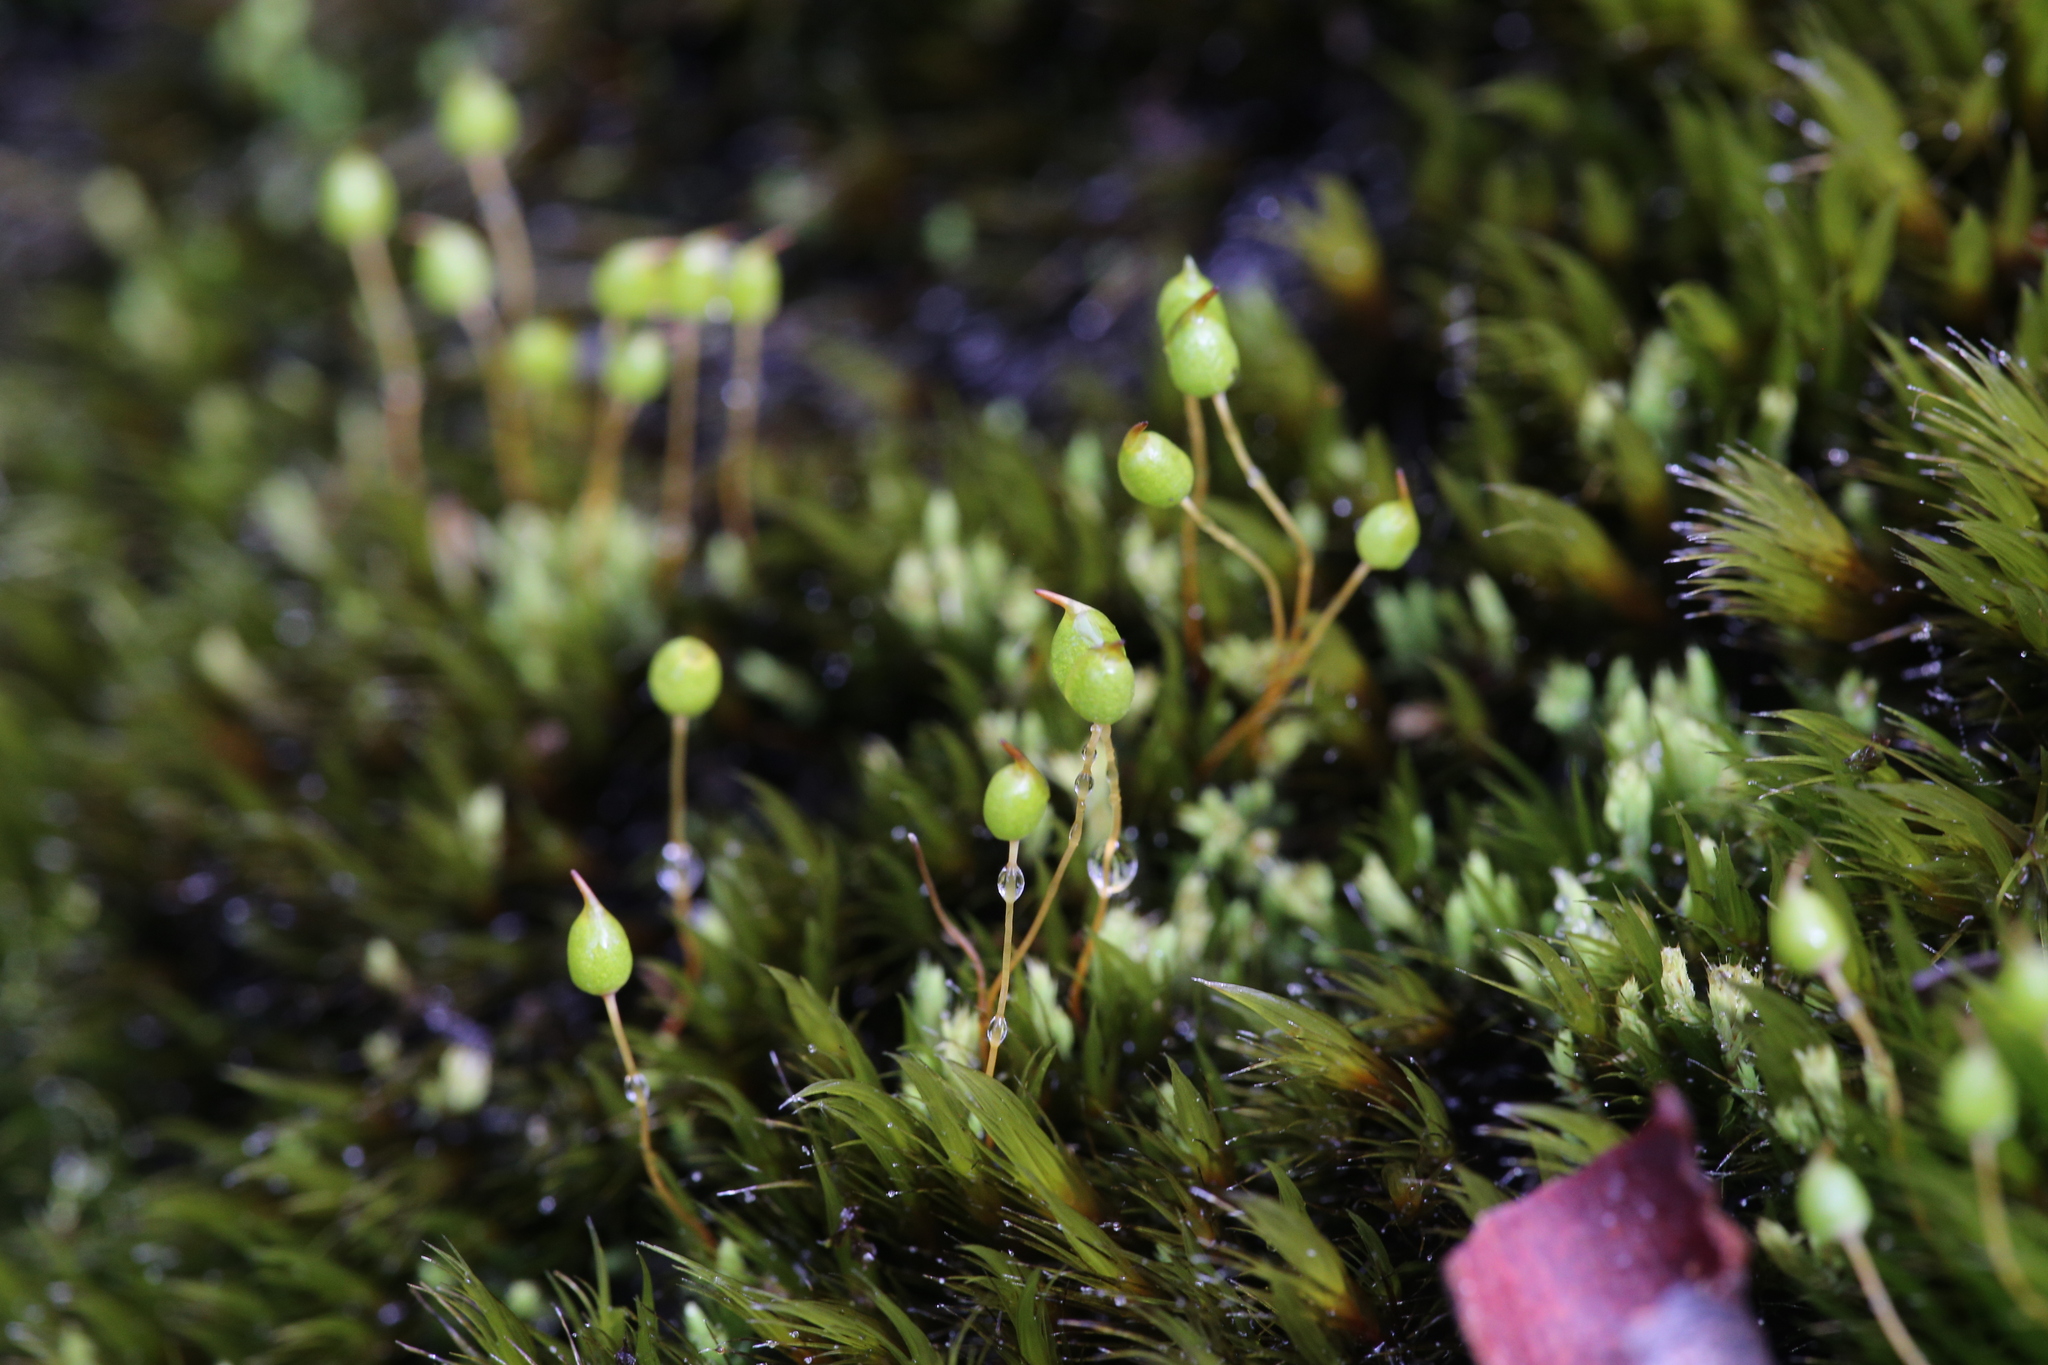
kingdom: Plantae
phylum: Bryophyta
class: Bryopsida
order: Bartramiales
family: Bartramiaceae
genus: Conostomum
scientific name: Conostomum pusillum
